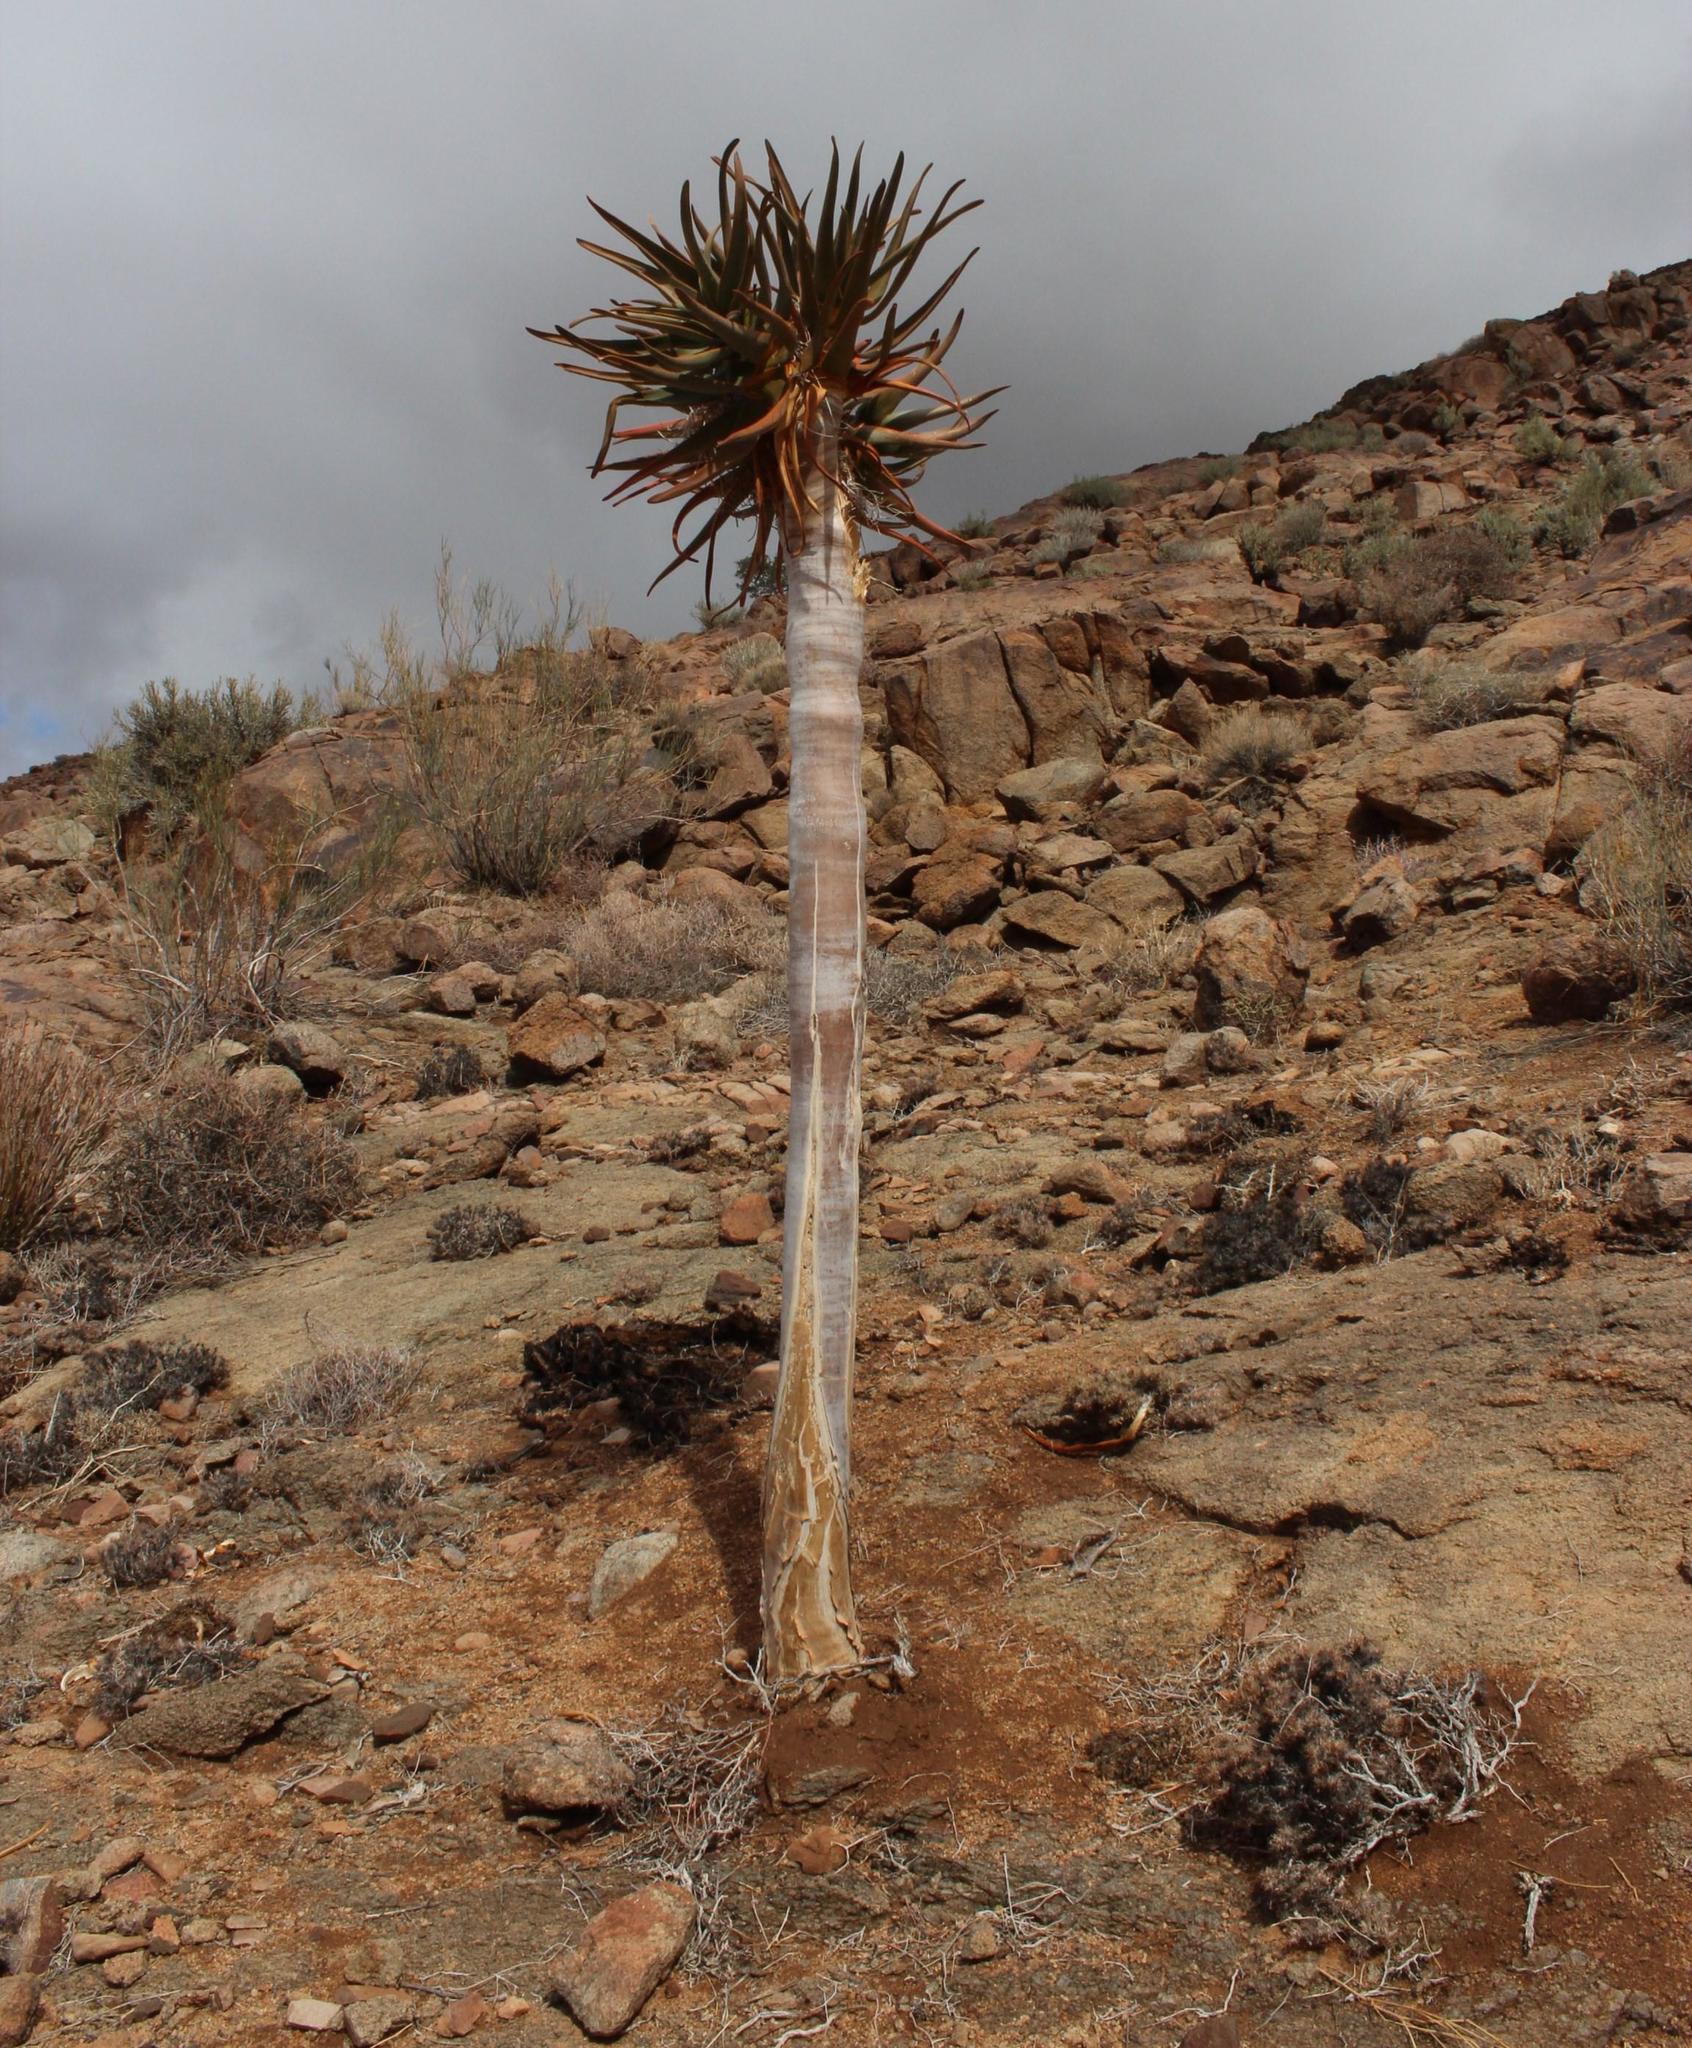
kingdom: Plantae
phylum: Tracheophyta
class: Liliopsida
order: Asparagales
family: Asphodelaceae
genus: Aloidendron
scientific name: Aloidendron dichotomum
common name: Quiver tree
